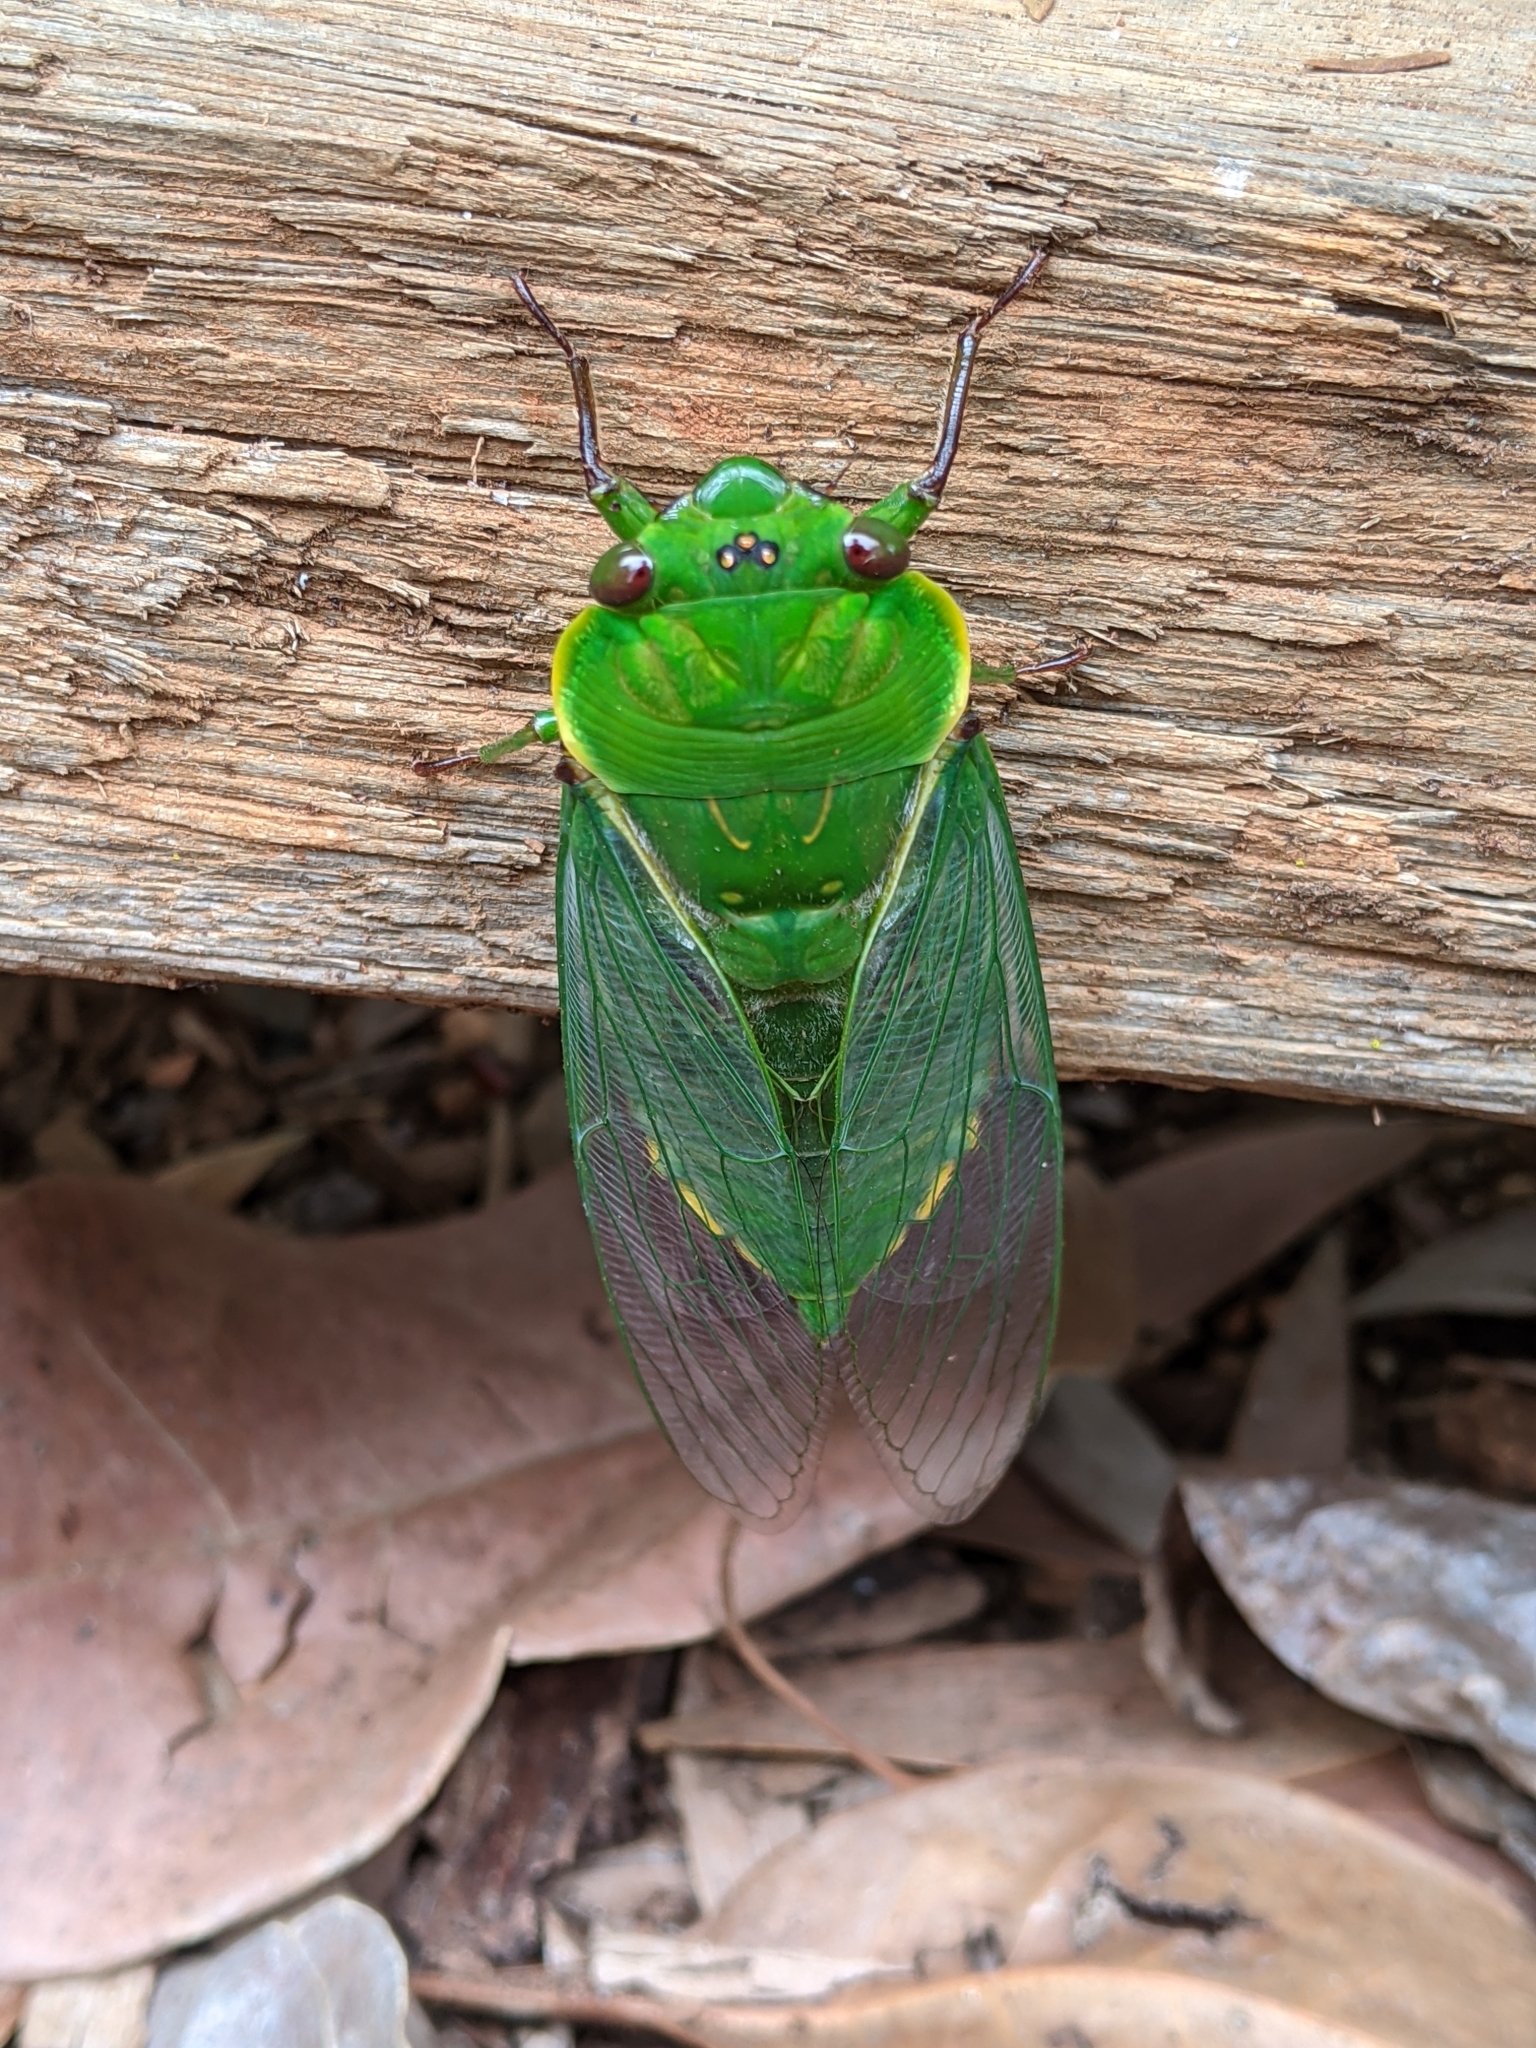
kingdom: Animalia
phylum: Arthropoda
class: Insecta
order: Hemiptera
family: Cicadidae
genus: Cyclochila
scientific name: Cyclochila virens
